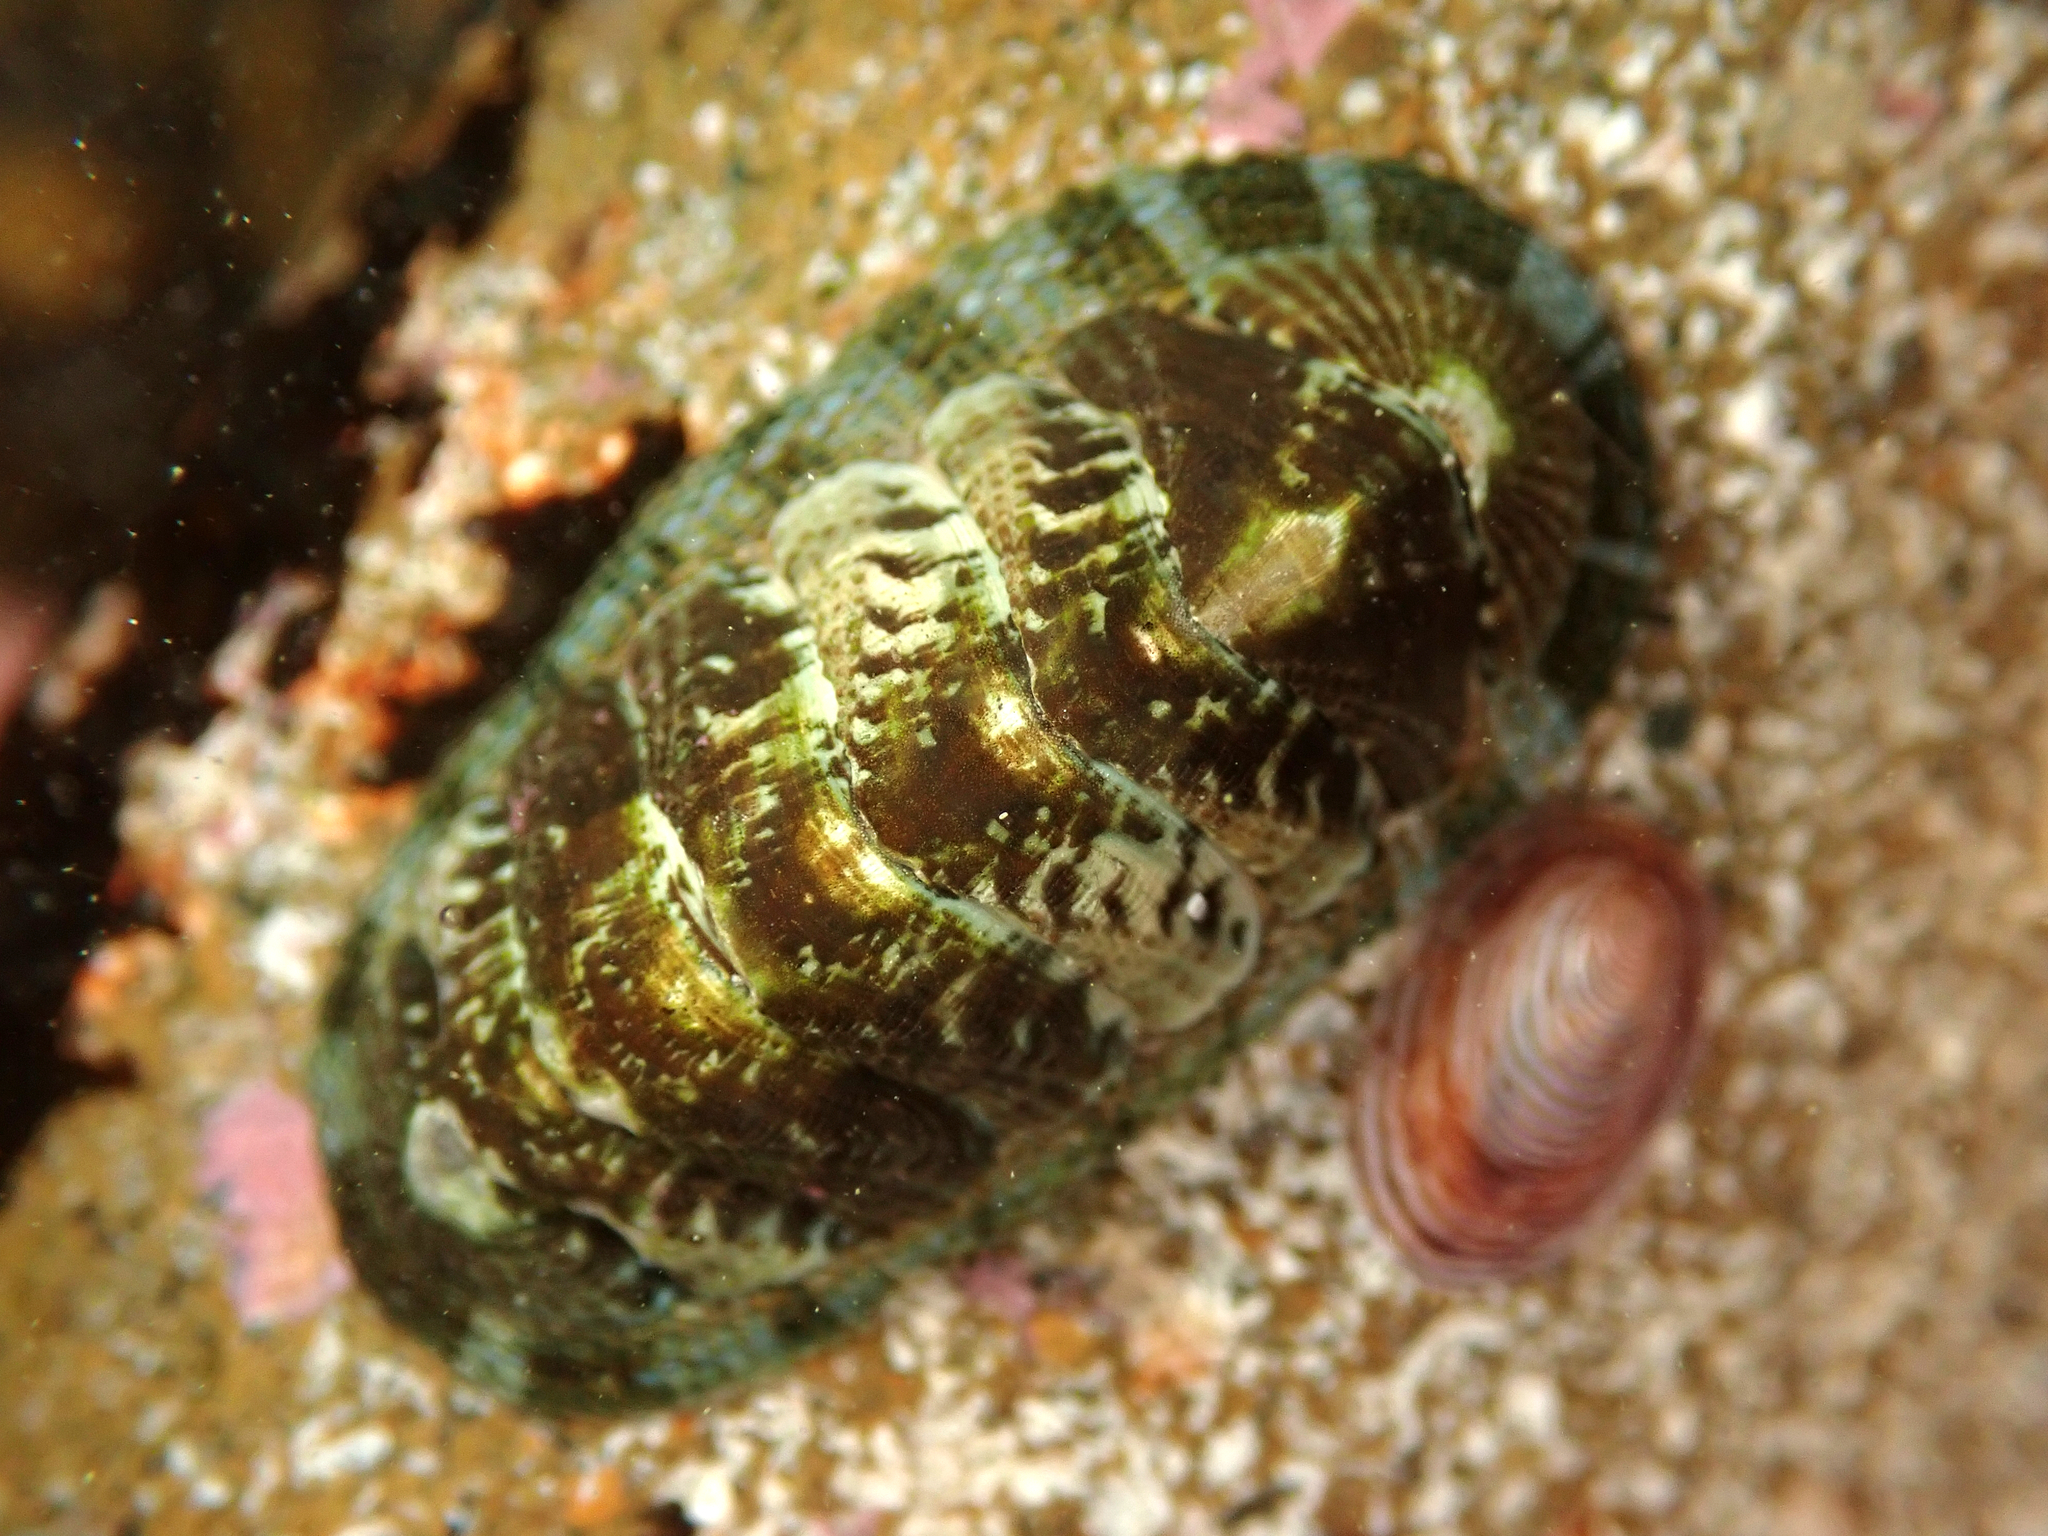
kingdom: Animalia
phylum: Mollusca
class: Polyplacophora
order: Chitonida
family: Chitonidae
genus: Sypharochiton
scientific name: Sypharochiton sinclairi
